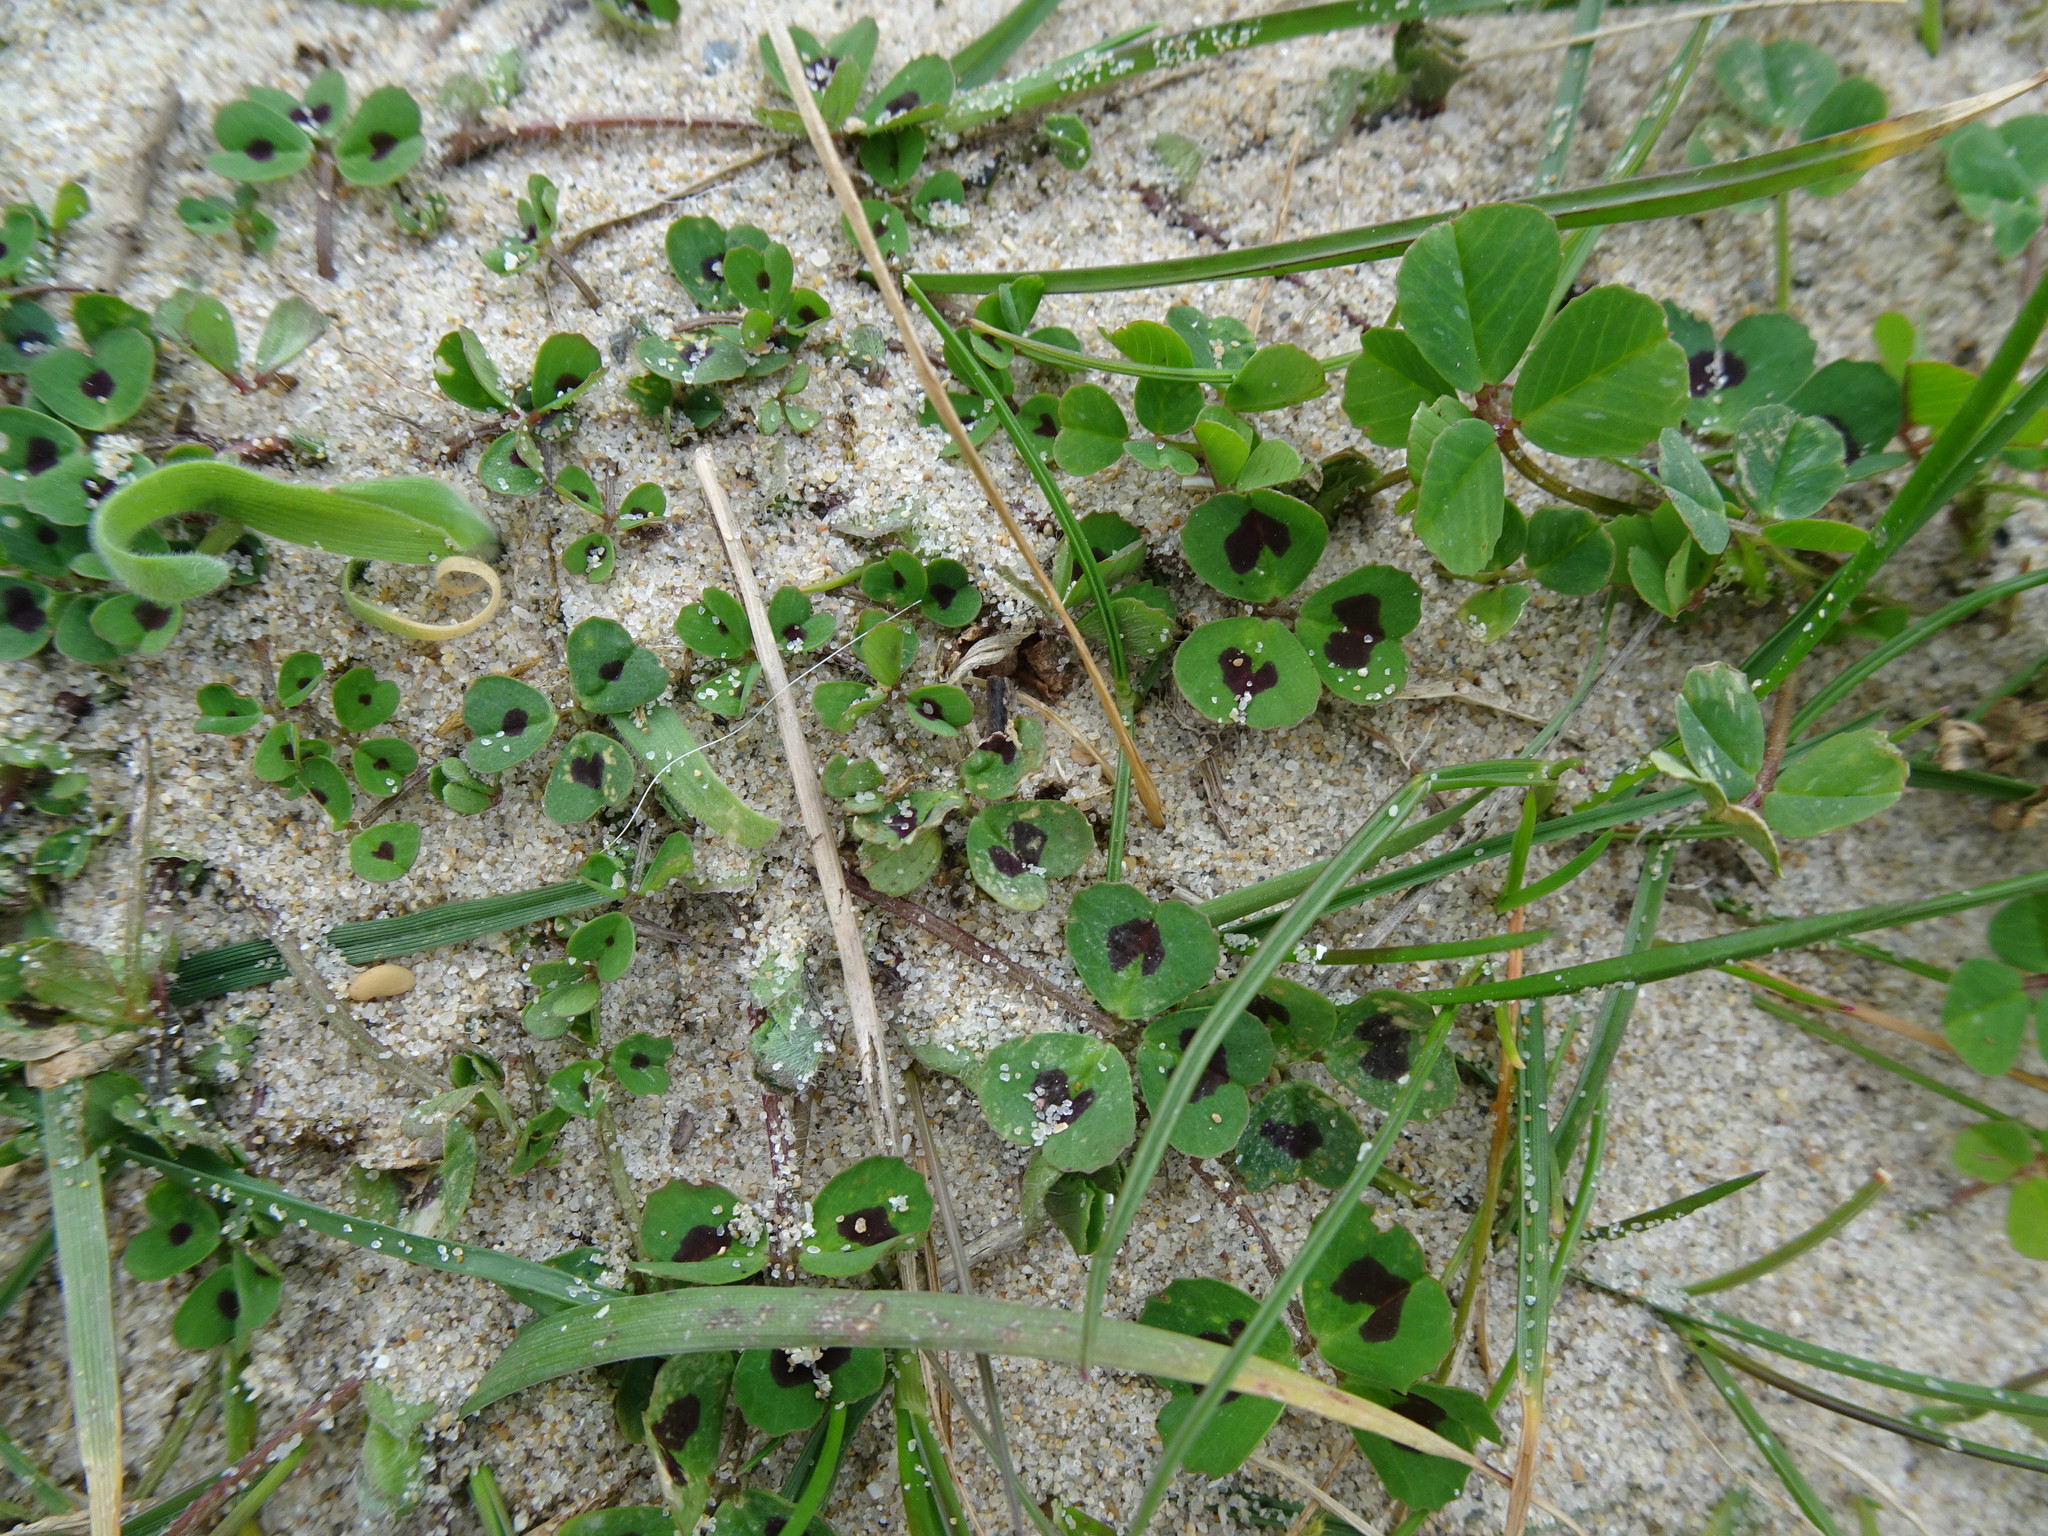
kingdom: Plantae
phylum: Tracheophyta
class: Magnoliopsida
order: Fabales
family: Fabaceae
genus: Medicago
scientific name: Medicago arabica
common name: Spotted medick
